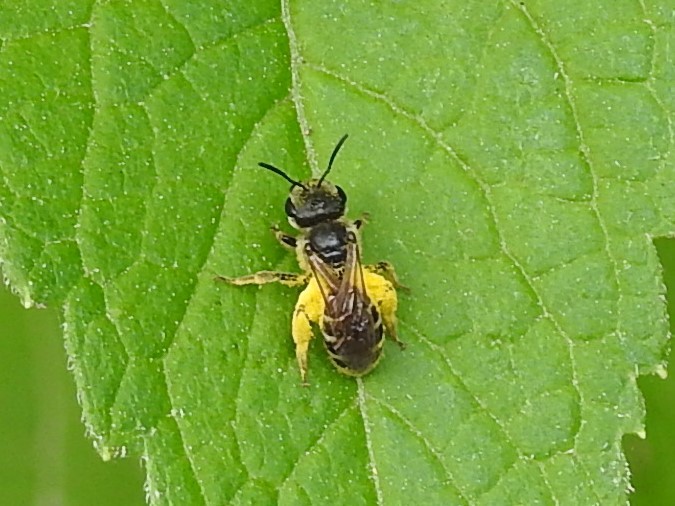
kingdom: Animalia
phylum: Arthropoda
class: Insecta
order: Hymenoptera
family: Halictidae
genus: Halictus
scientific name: Halictus ligatus
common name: Ligated furrow bee
